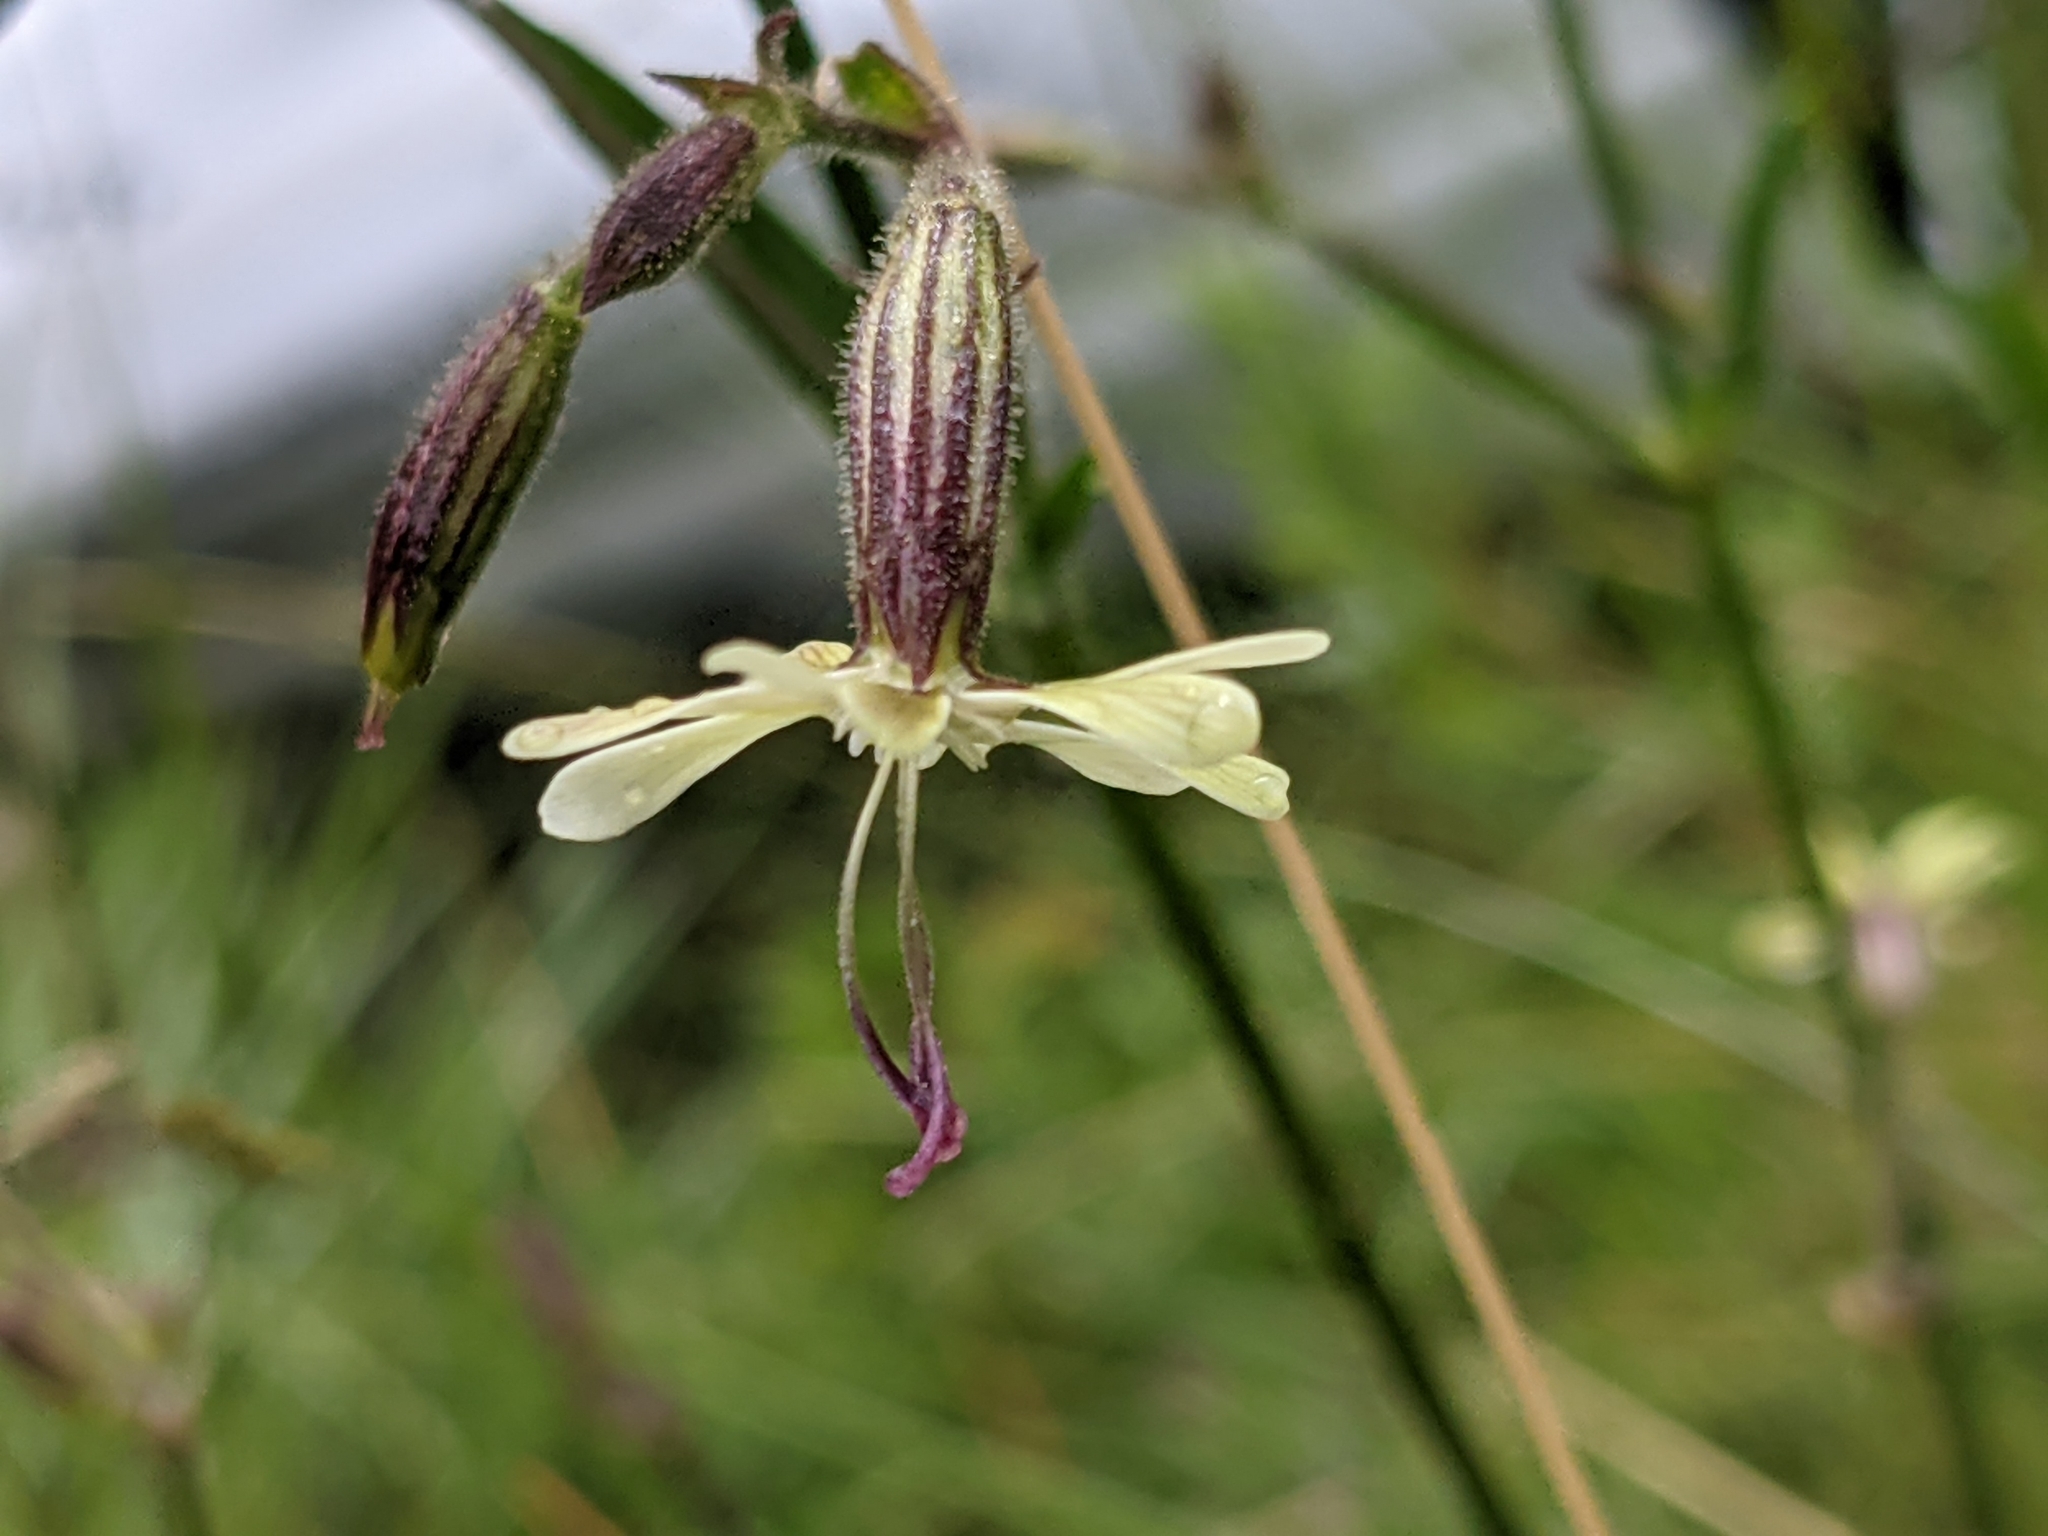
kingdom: Plantae
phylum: Tracheophyta
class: Magnoliopsida
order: Caryophyllales
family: Caryophyllaceae
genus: Silene
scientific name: Silene nutans
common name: Nottingham catchfly
